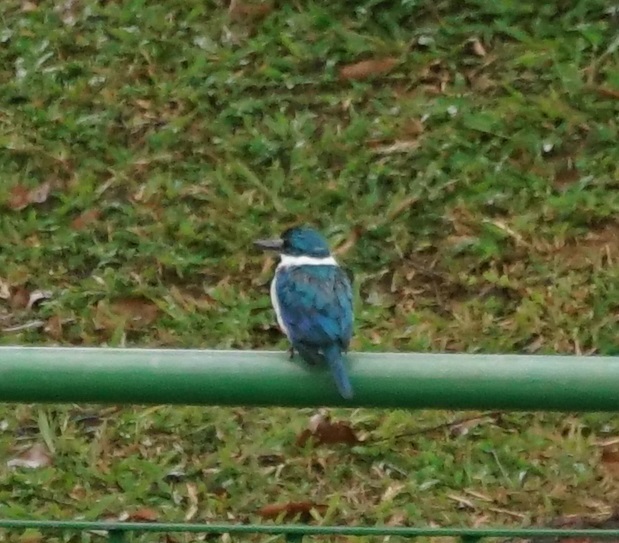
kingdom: Animalia
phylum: Chordata
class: Aves
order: Coraciiformes
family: Alcedinidae
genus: Todiramphus
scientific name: Todiramphus chloris
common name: Collared kingfisher
